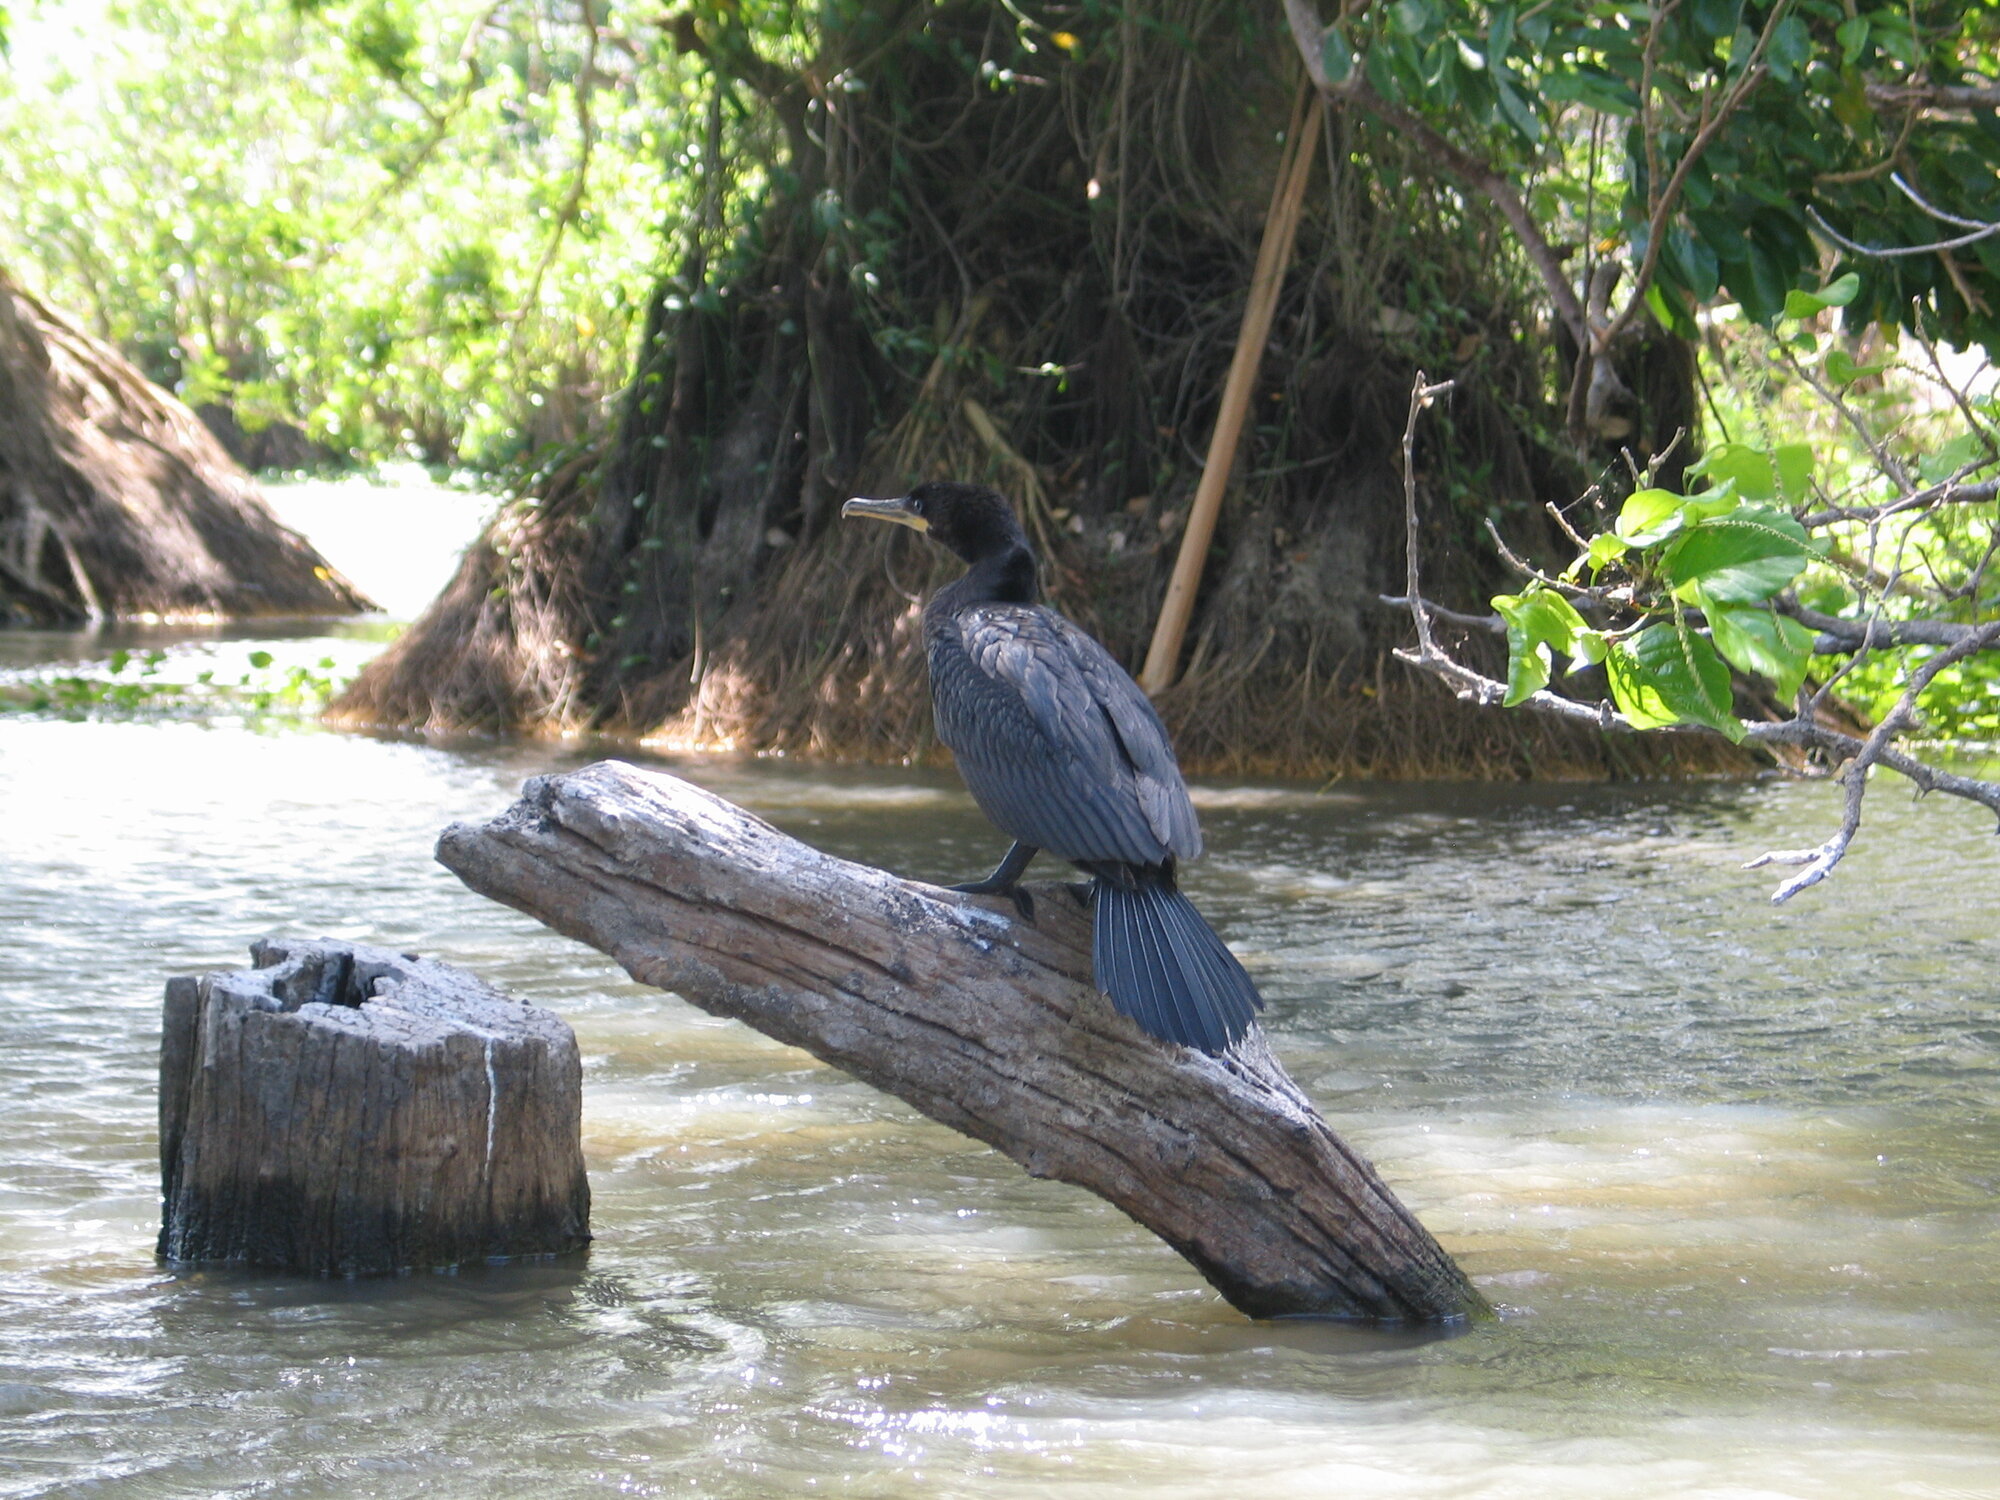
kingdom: Animalia
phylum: Chordata
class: Aves
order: Suliformes
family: Phalacrocoracidae
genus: Phalacrocorax
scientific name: Phalacrocorax brasilianus
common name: Neotropic cormorant
